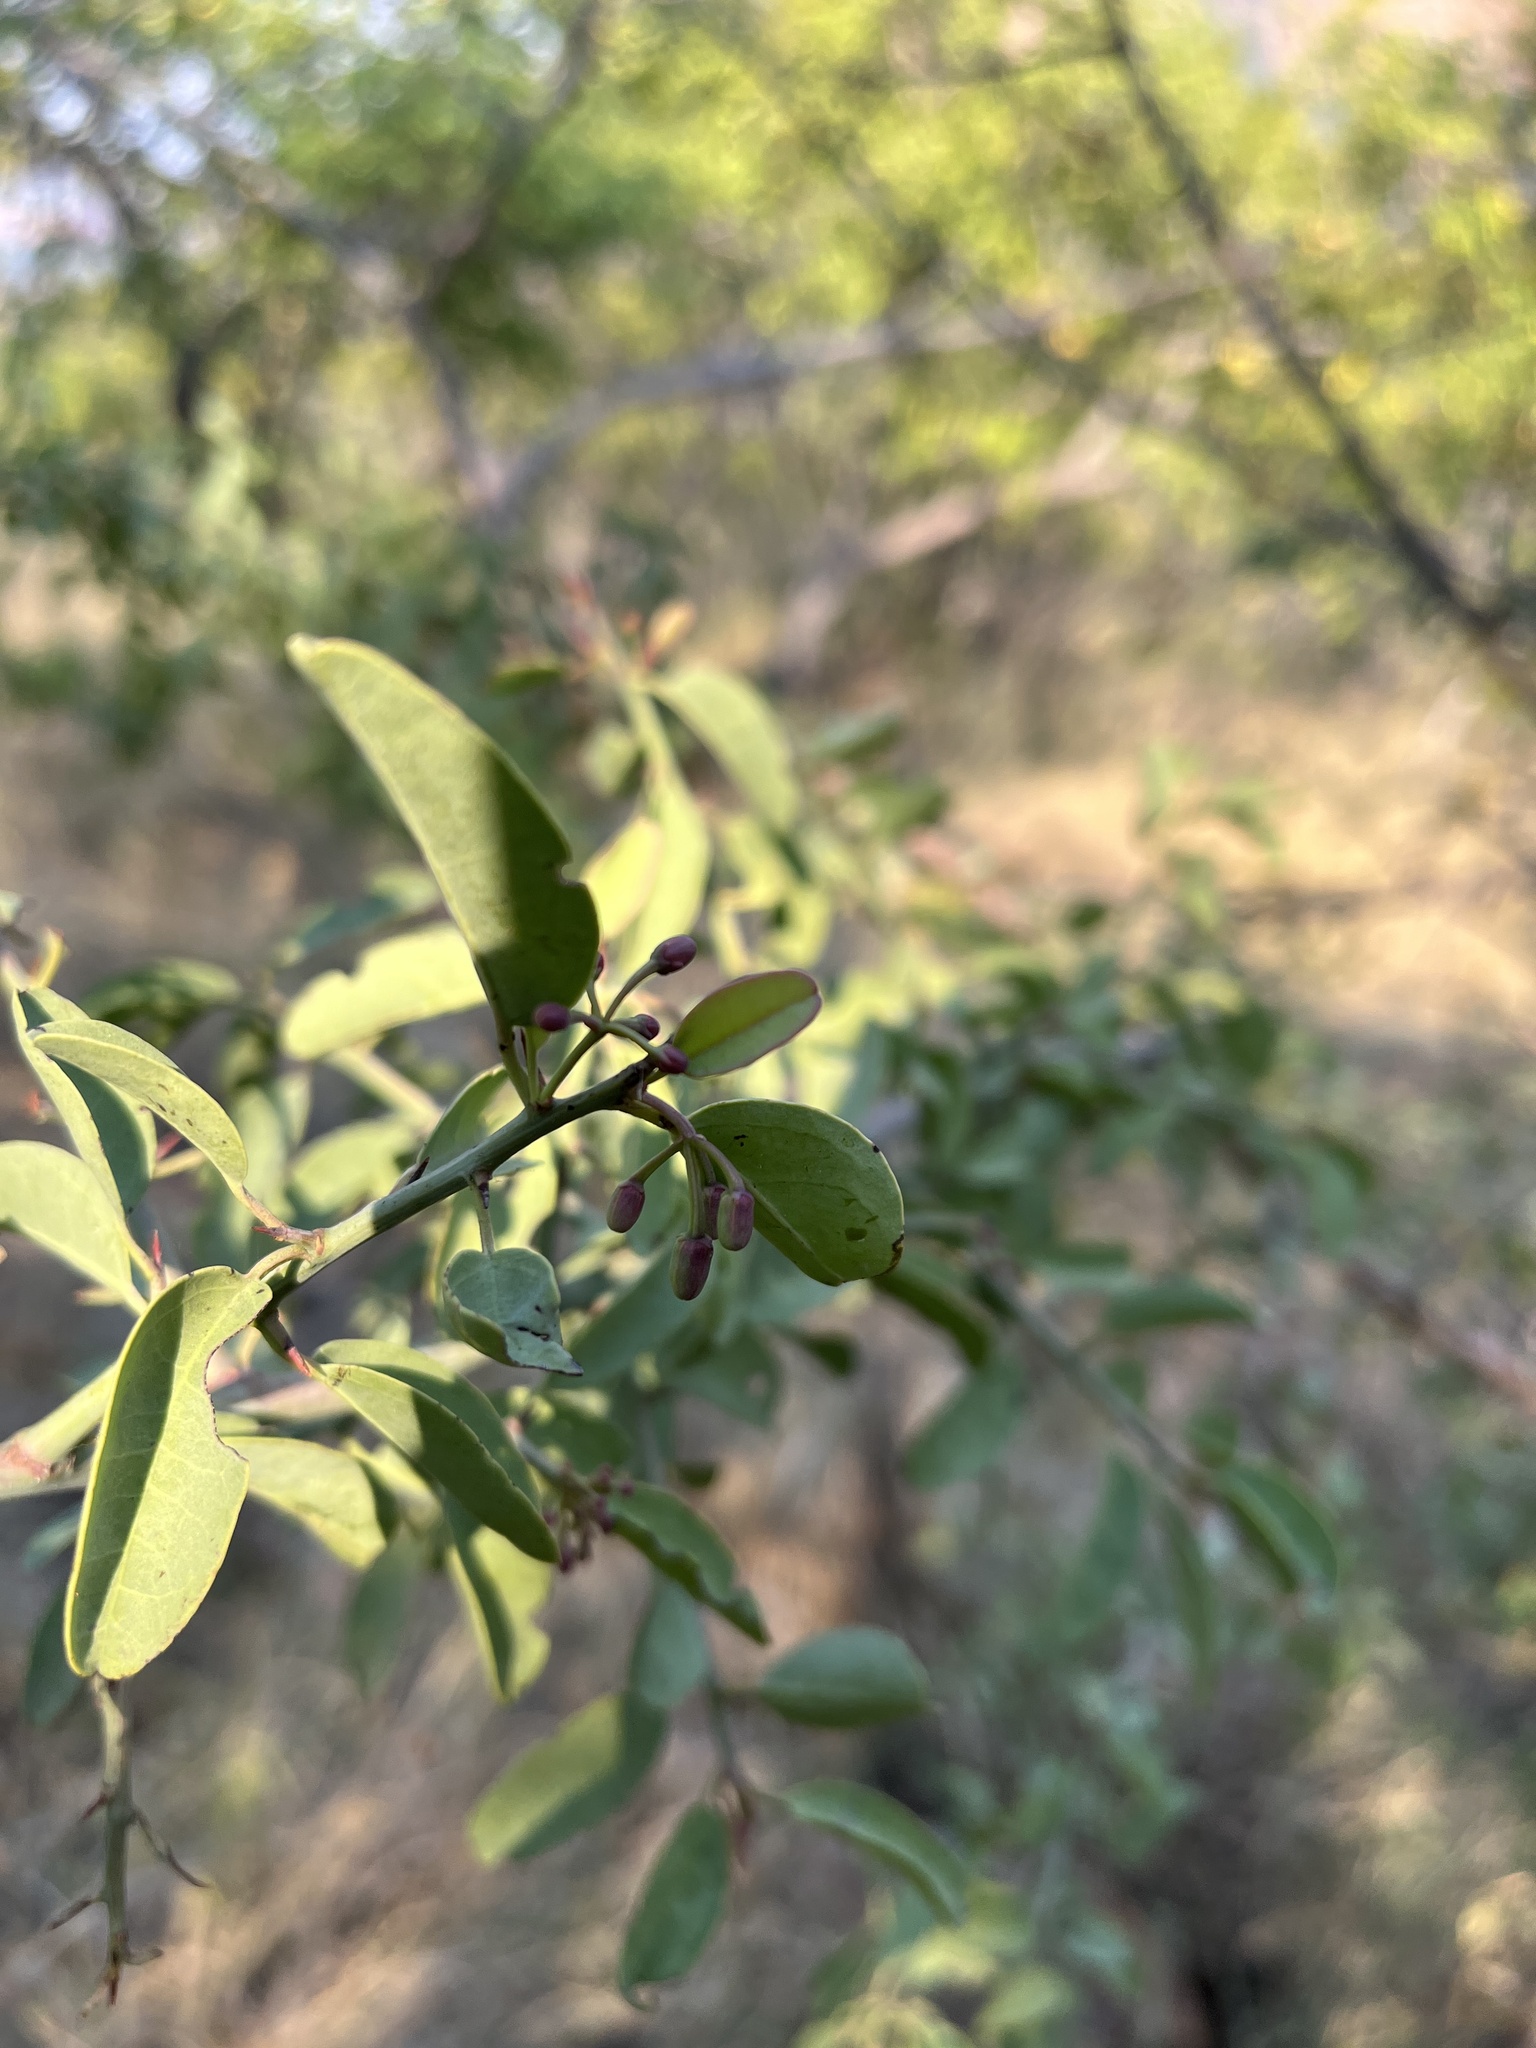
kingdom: Plantae
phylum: Tracheophyta
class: Magnoliopsida
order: Santalales
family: Ximeniaceae
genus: Ximenia
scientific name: Ximenia caffra
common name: Large sourplum
